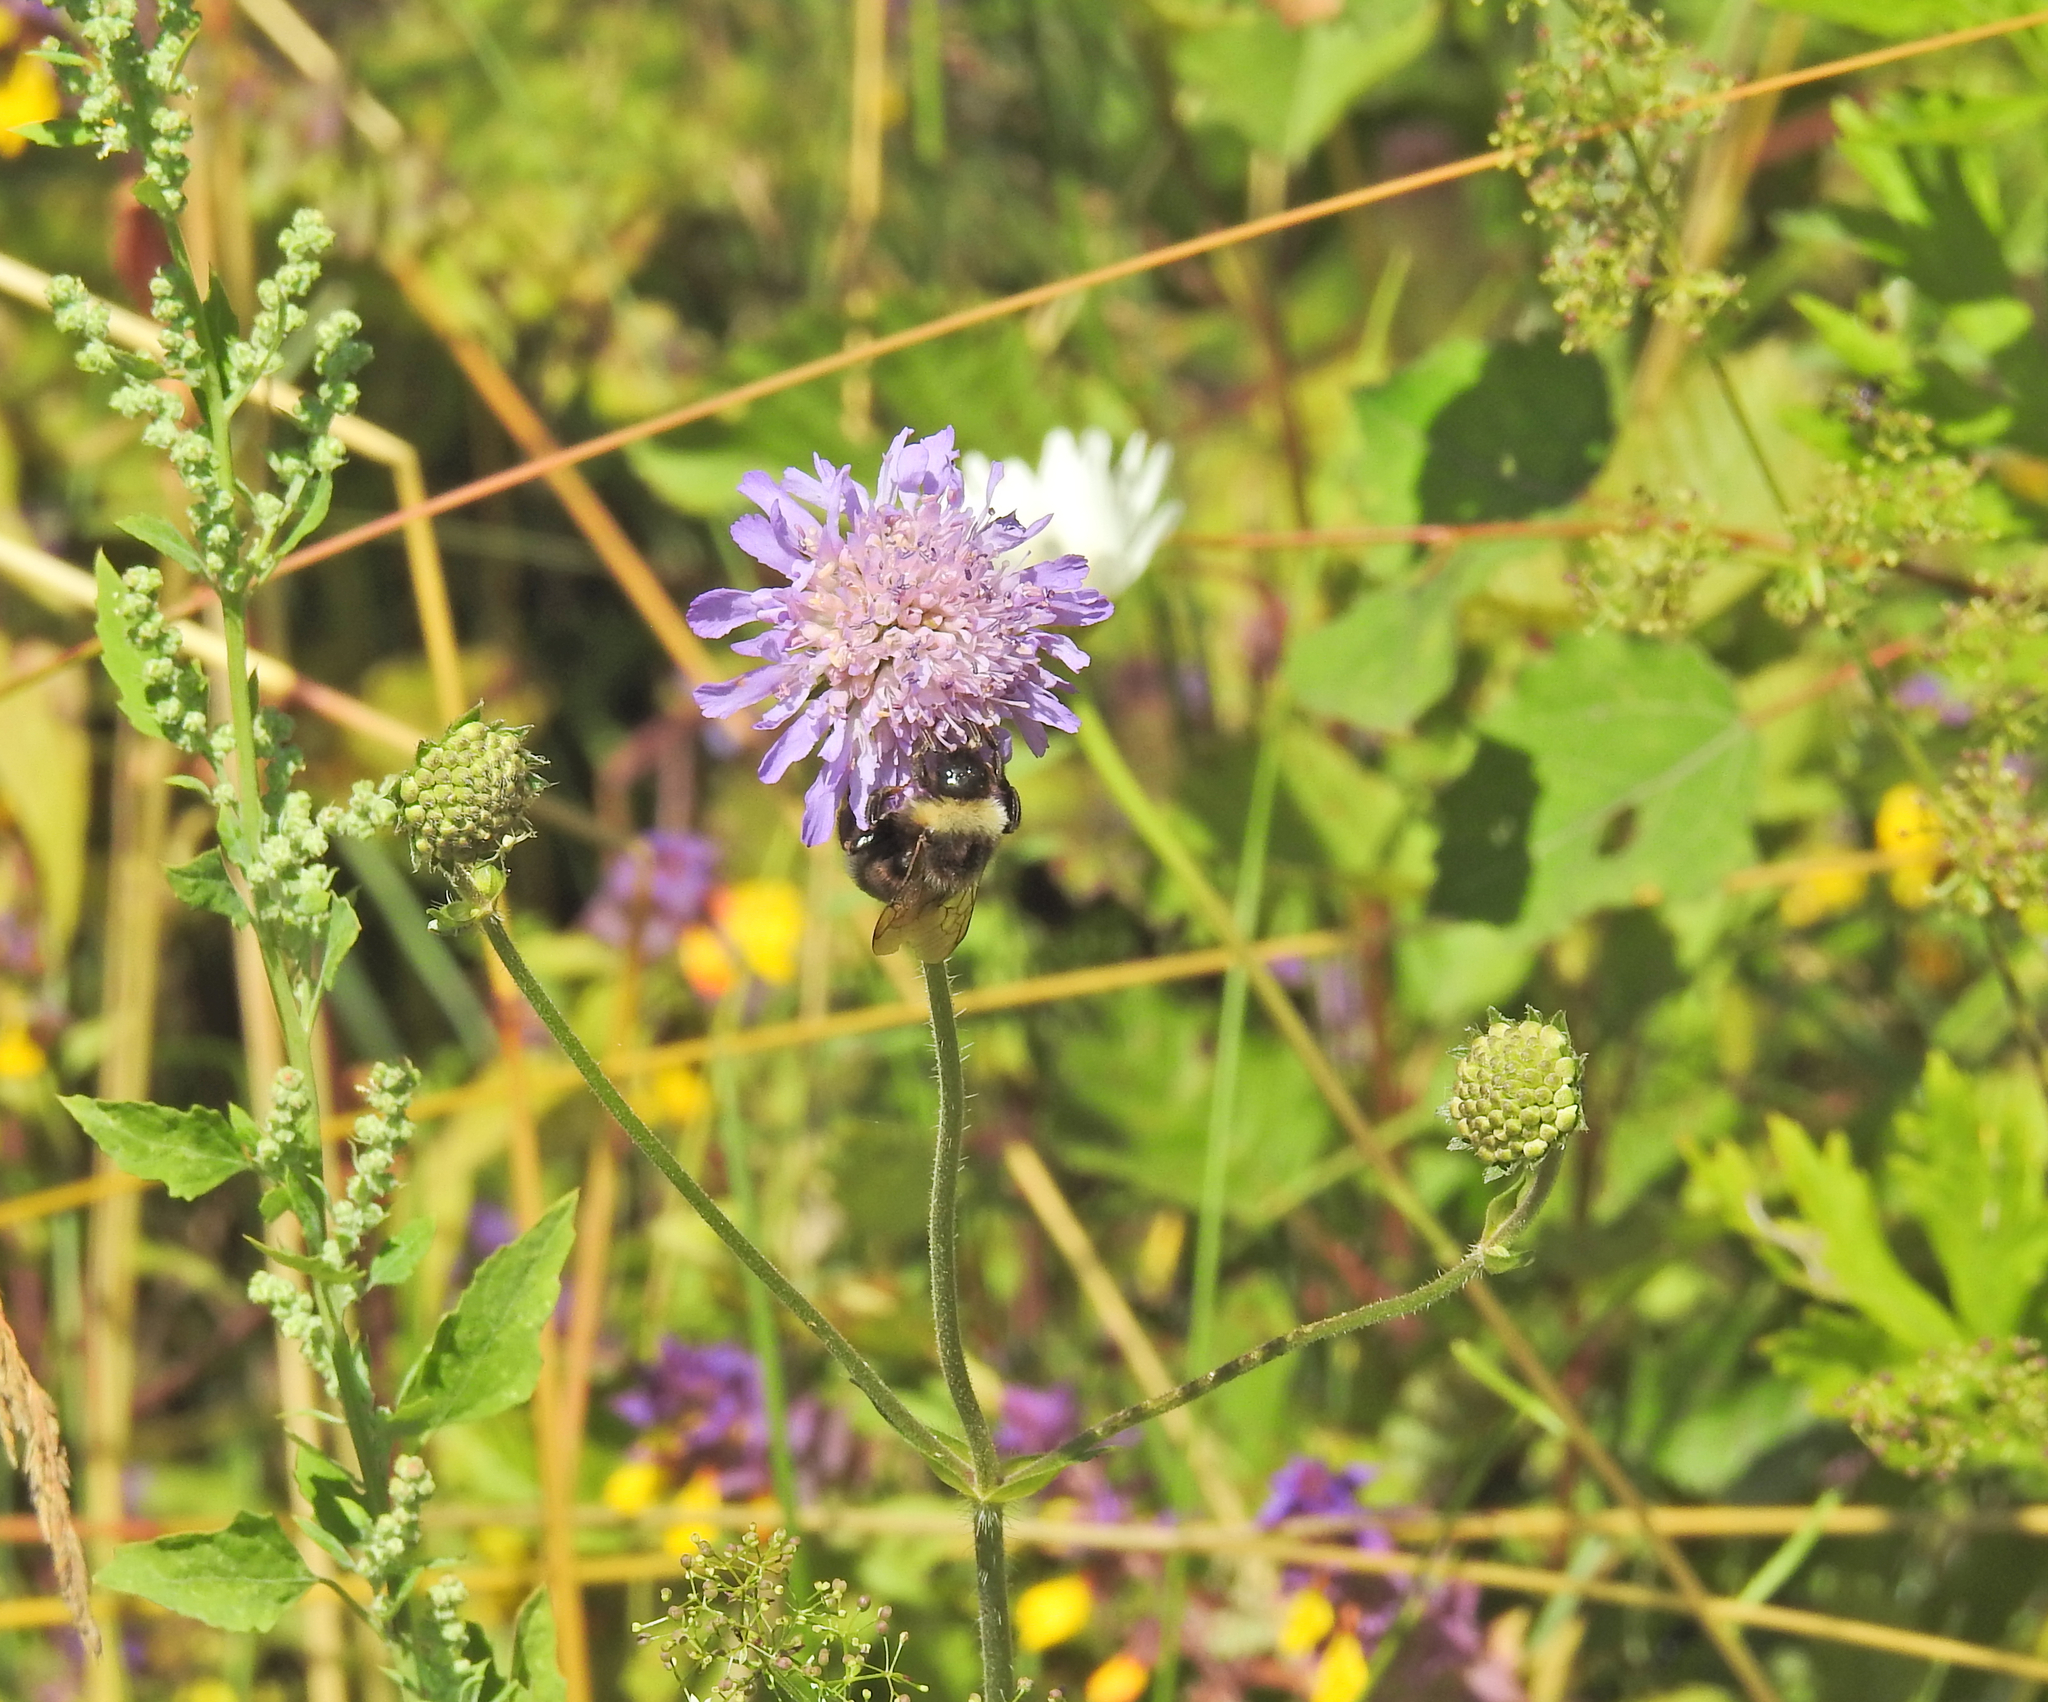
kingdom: Plantae
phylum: Tracheophyta
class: Magnoliopsida
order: Dipsacales
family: Caprifoliaceae
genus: Knautia
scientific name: Knautia arvensis
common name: Field scabiosa
